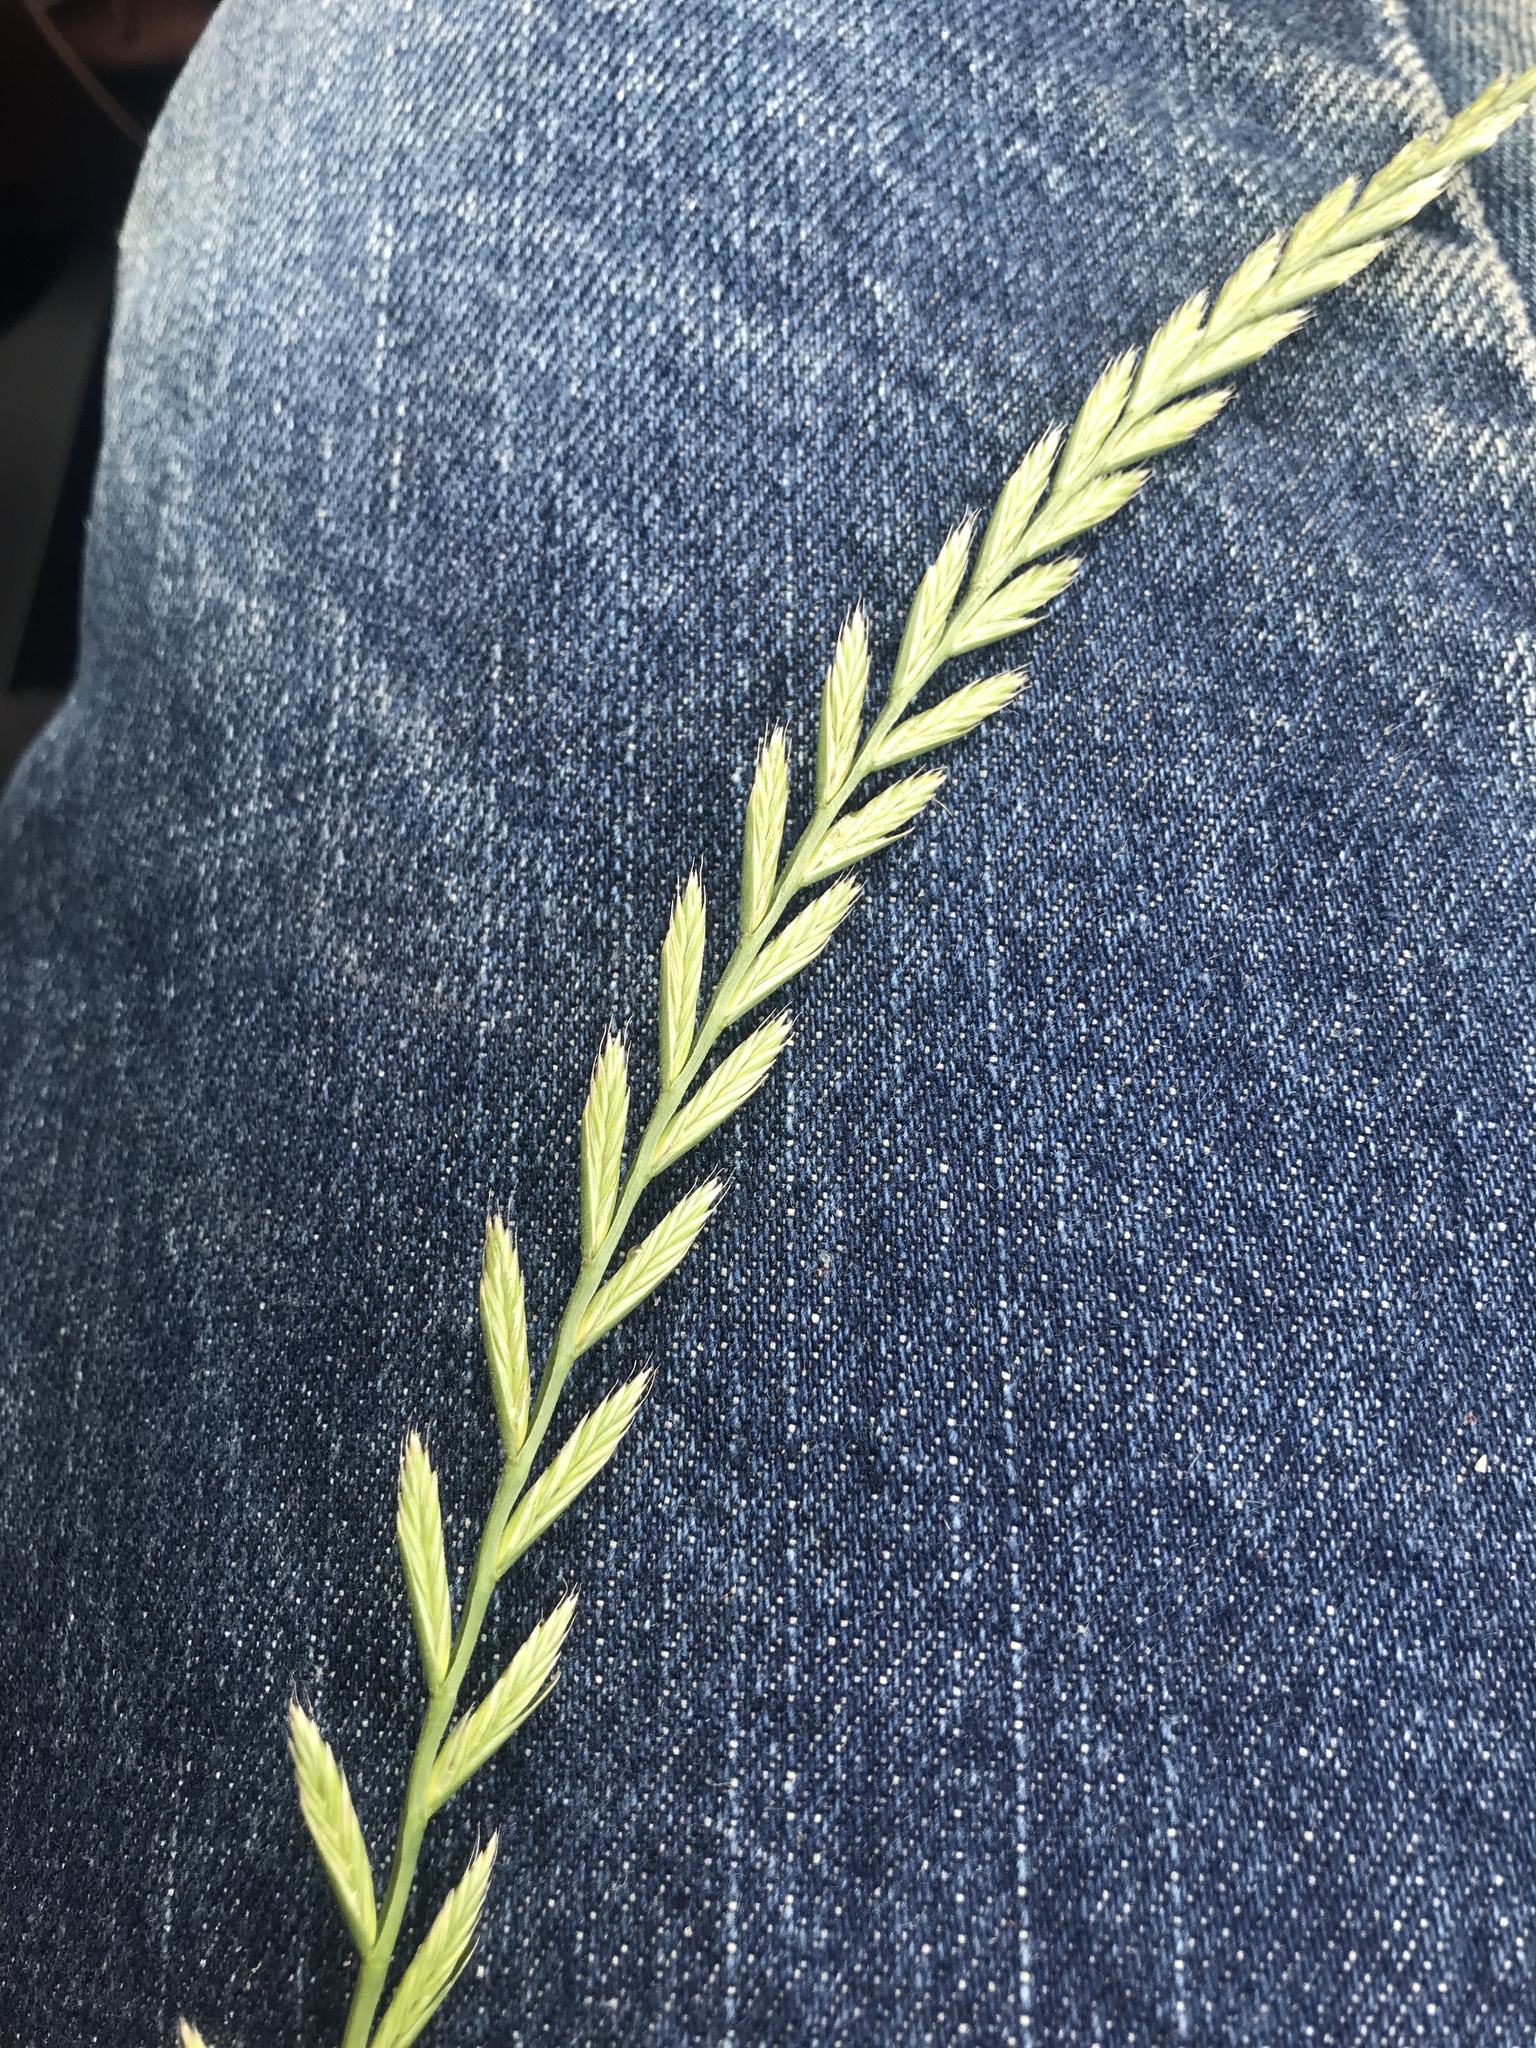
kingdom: Plantae
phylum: Tracheophyta
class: Liliopsida
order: Poales
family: Poaceae
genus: Lolium
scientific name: Lolium perenne
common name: Perennial ryegrass
